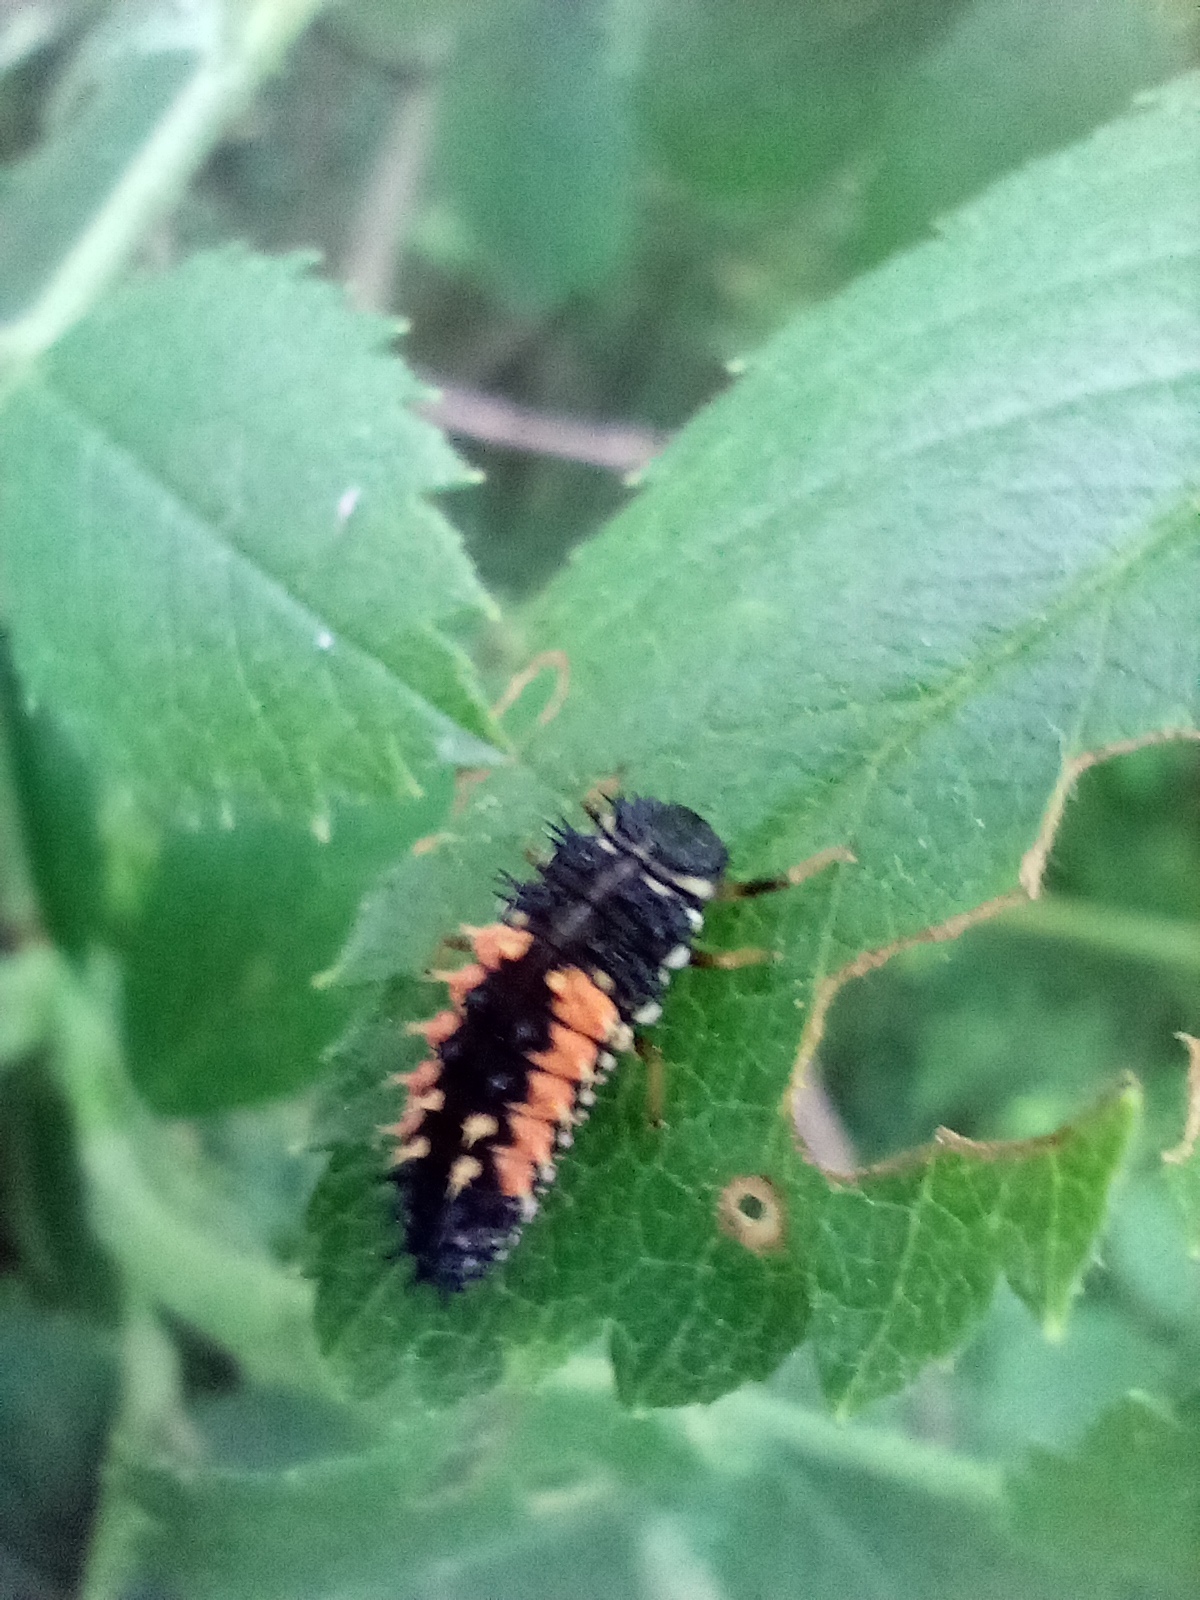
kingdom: Animalia
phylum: Arthropoda
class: Insecta
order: Coleoptera
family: Coccinellidae
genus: Harmonia
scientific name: Harmonia axyridis
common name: Harlequin ladybird
